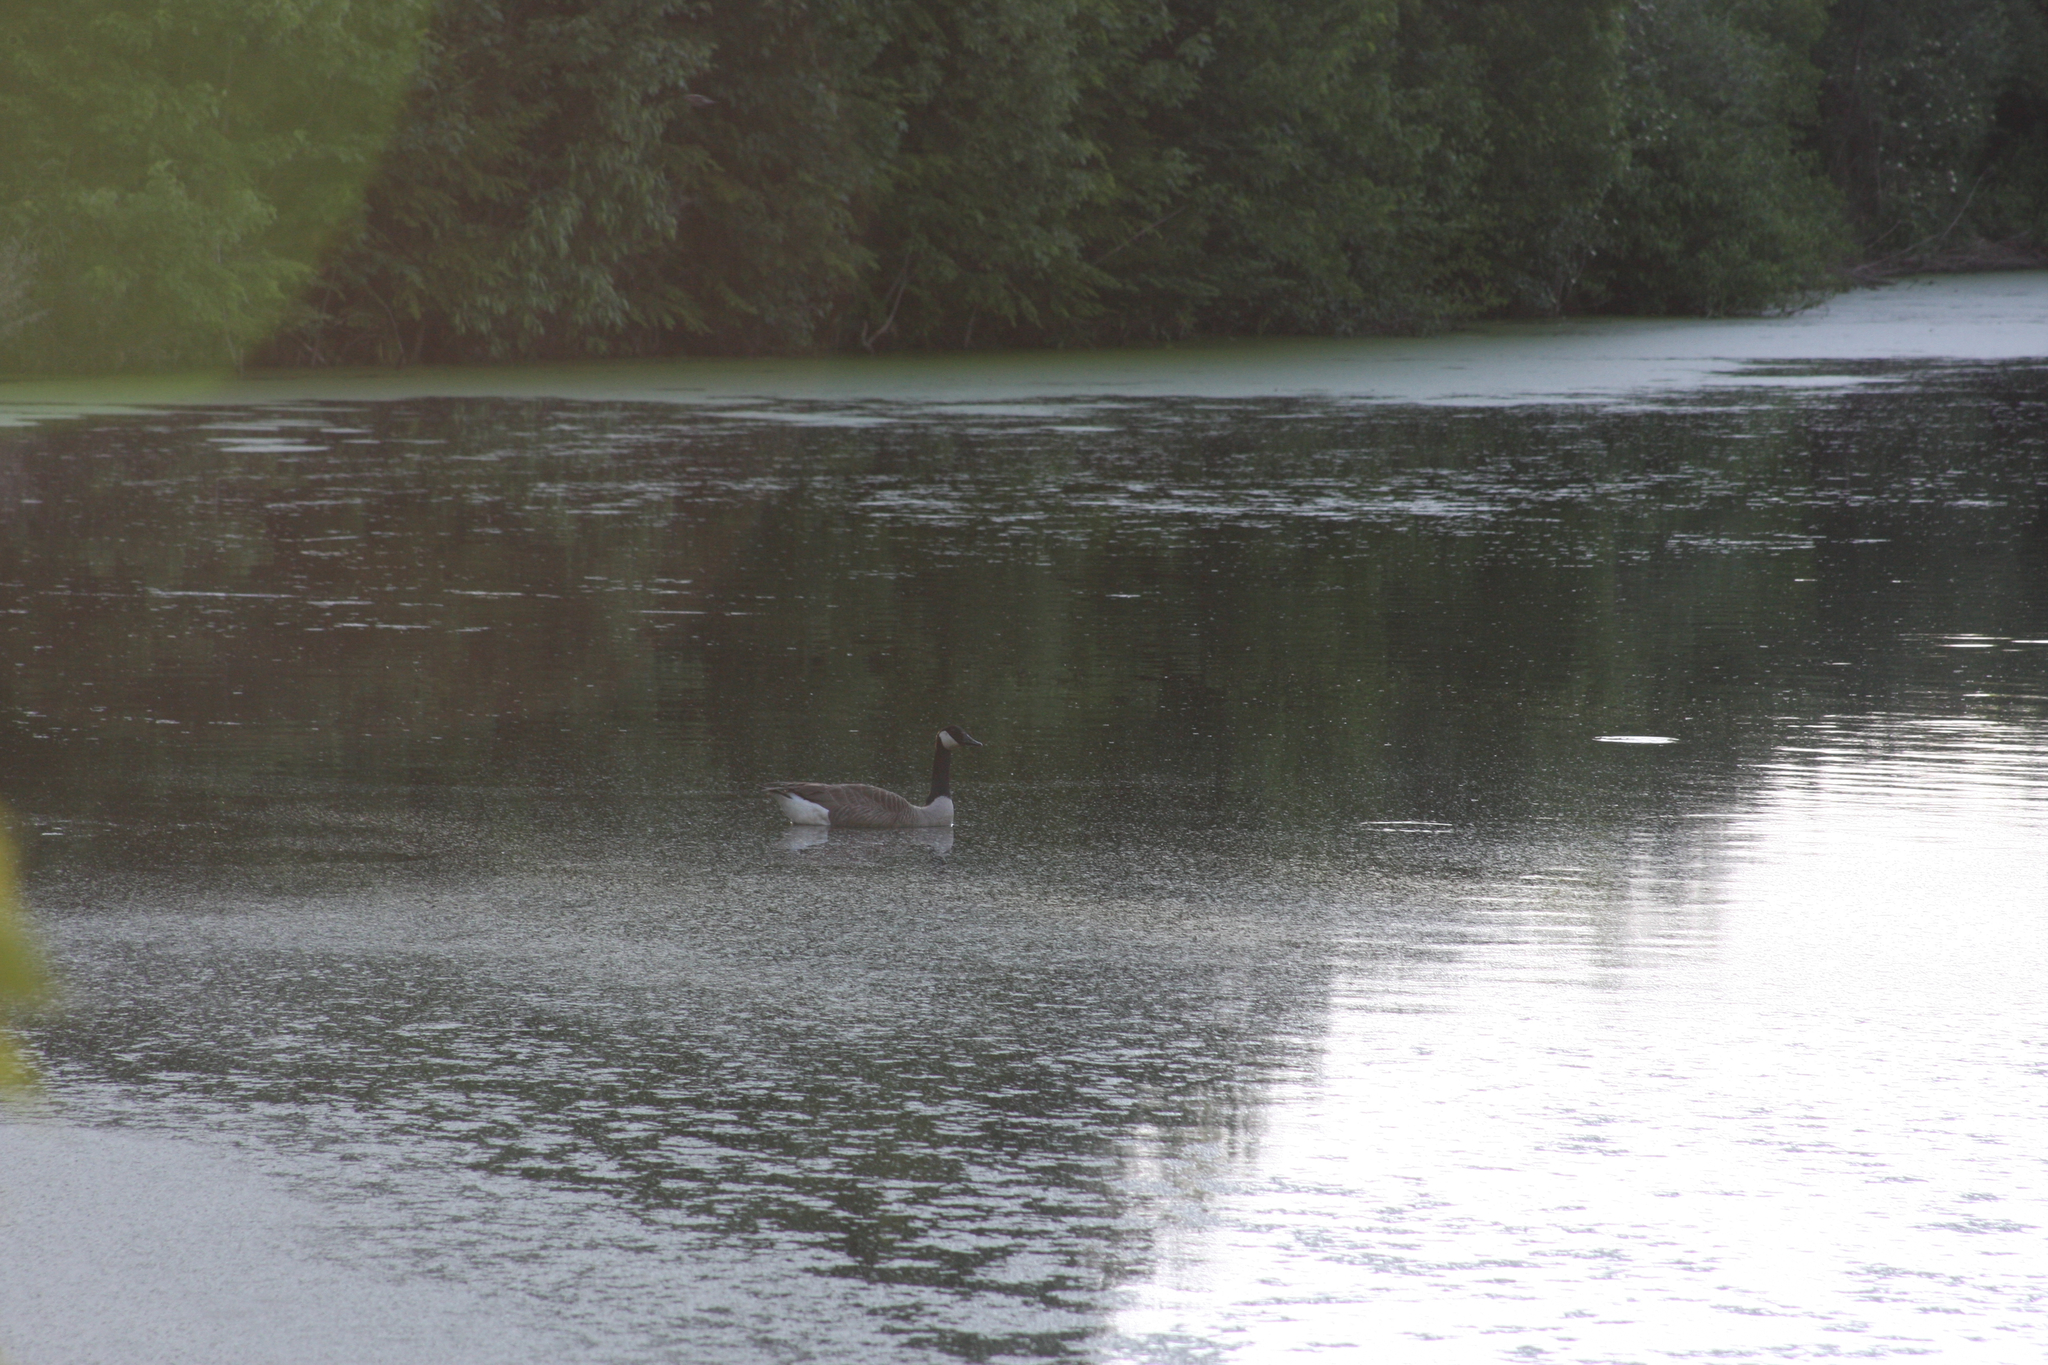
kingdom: Animalia
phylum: Chordata
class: Aves
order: Anseriformes
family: Anatidae
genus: Branta
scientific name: Branta canadensis
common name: Canada goose
